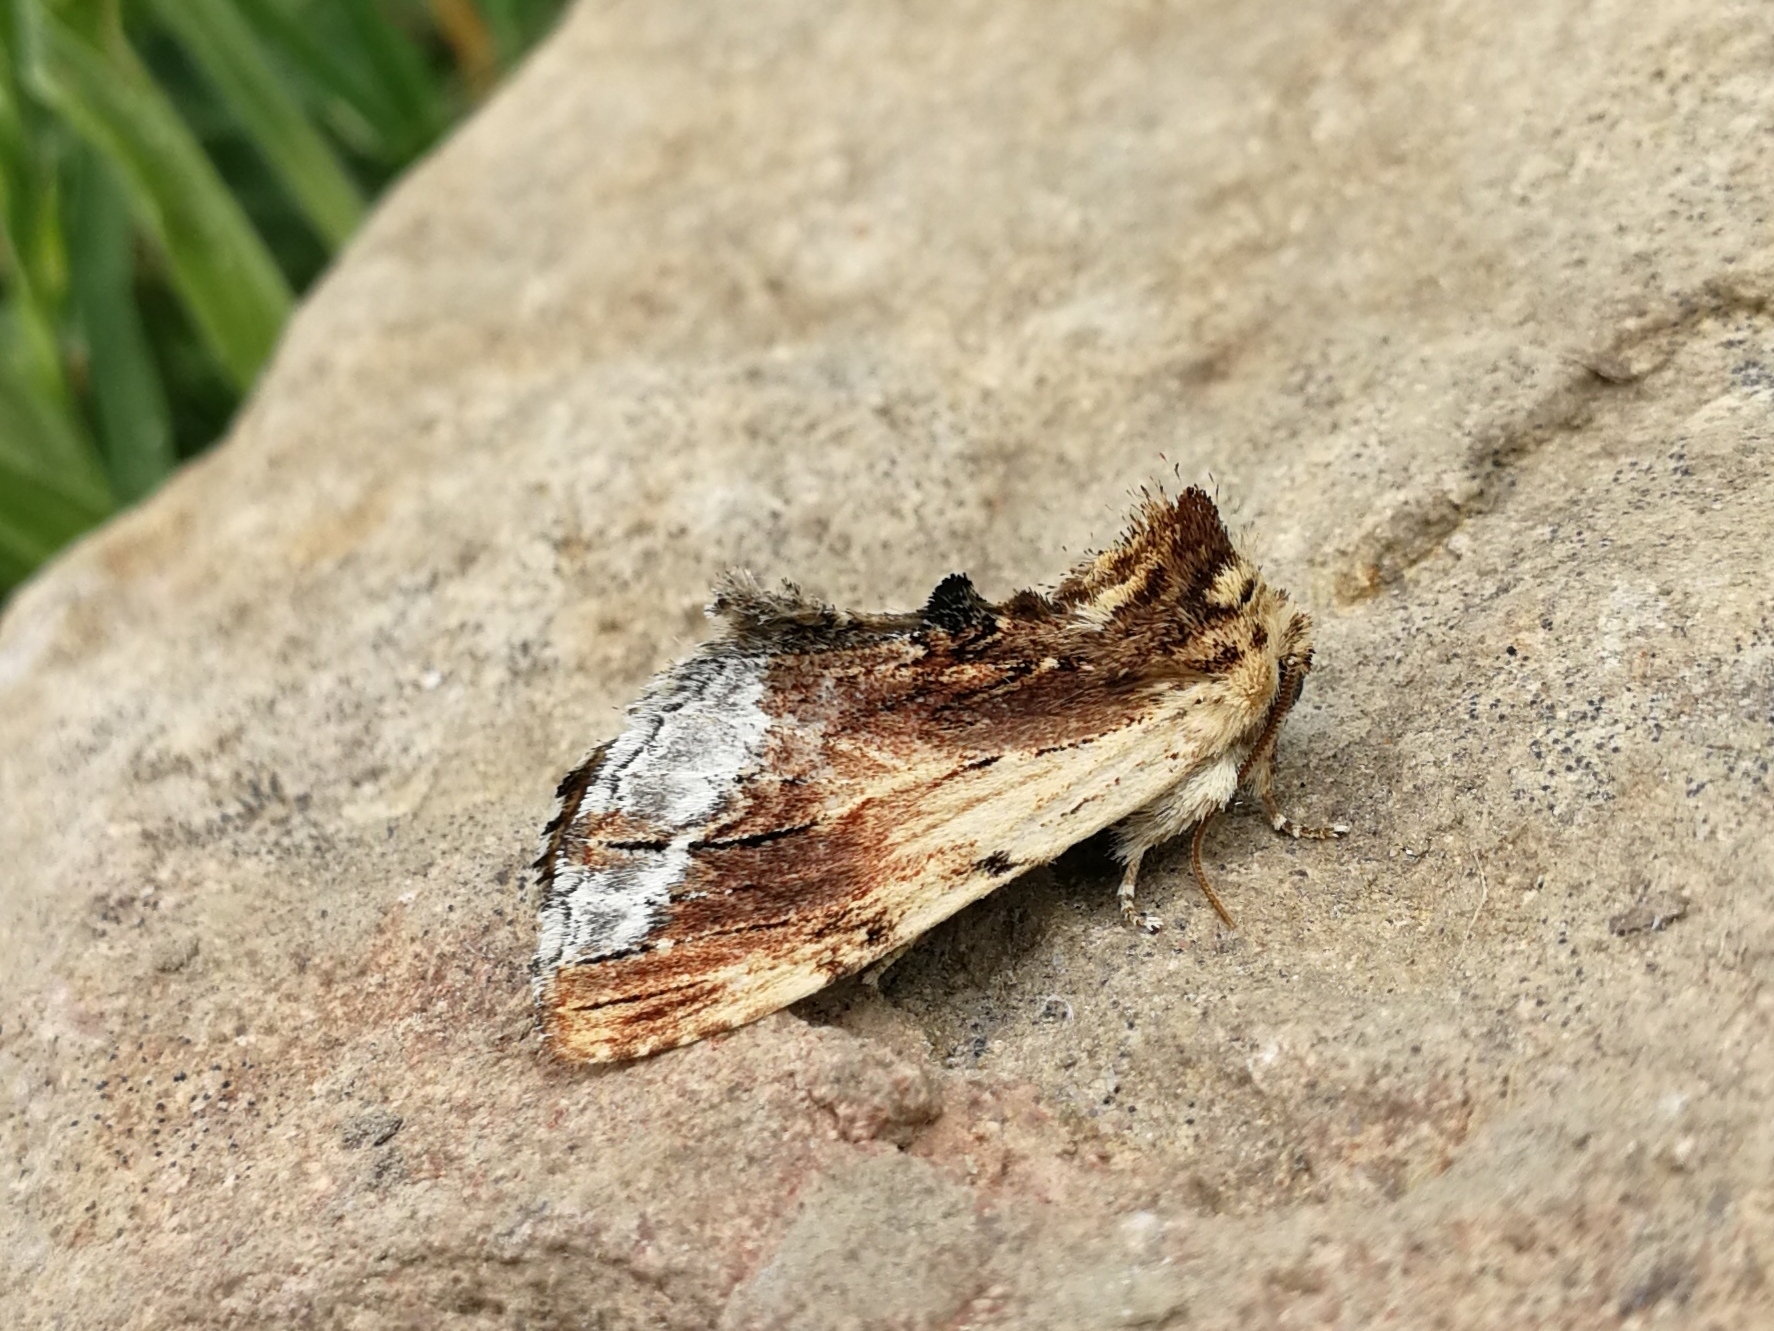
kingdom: Animalia
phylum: Arthropoda
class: Insecta
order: Lepidoptera
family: Notodontidae
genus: Ptilodon
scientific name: Ptilodon cucullina
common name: Maple prominent
